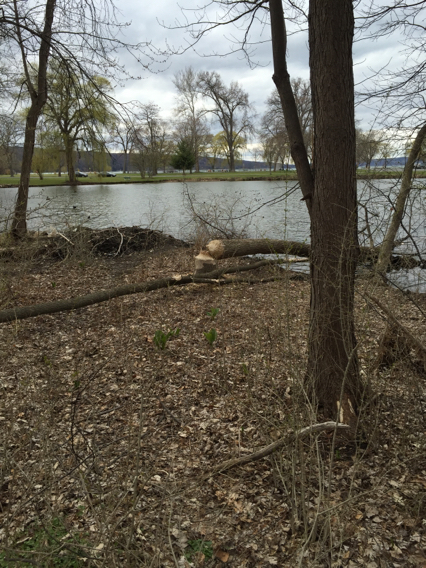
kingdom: Animalia
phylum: Chordata
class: Mammalia
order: Rodentia
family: Castoridae
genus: Castor
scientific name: Castor canadensis
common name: American beaver
